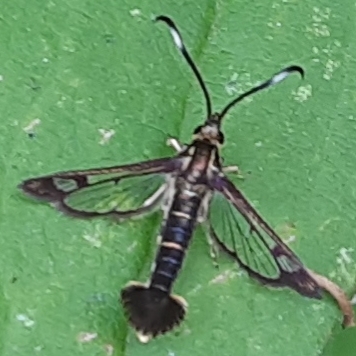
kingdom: Animalia
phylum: Arthropoda
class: Insecta
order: Lepidoptera
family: Sesiidae
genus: Carmenta
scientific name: Carmenta ithacae
